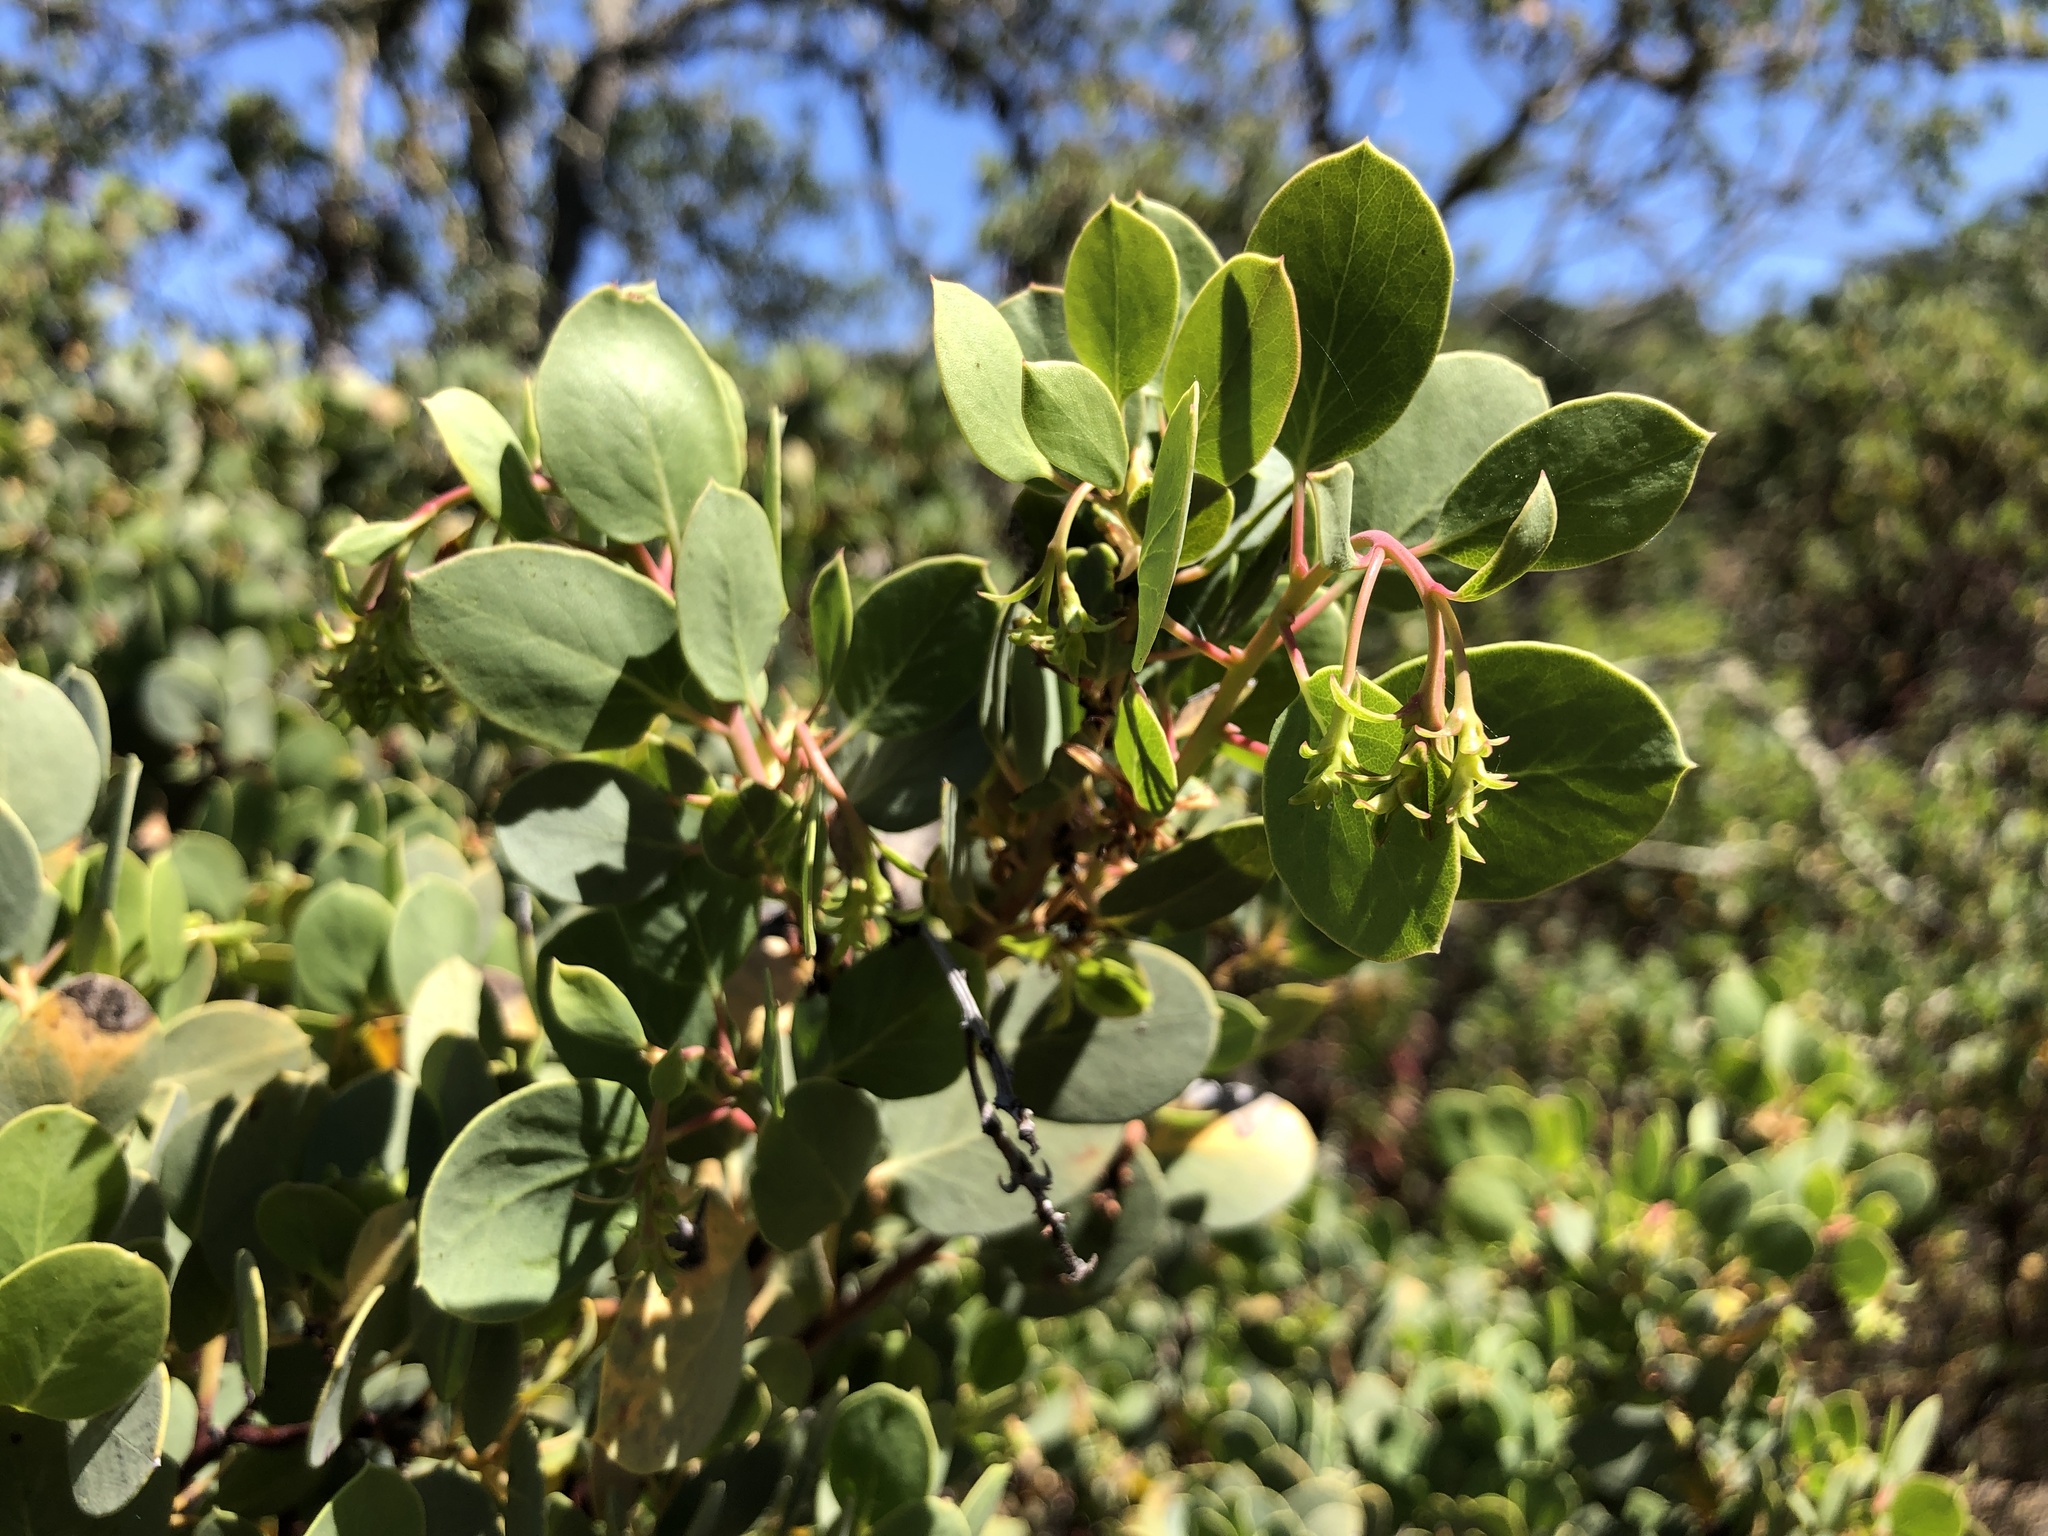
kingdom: Plantae
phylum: Tracheophyta
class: Magnoliopsida
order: Ericales
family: Ericaceae
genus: Arctostaphylos
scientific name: Arctostaphylos glauca
